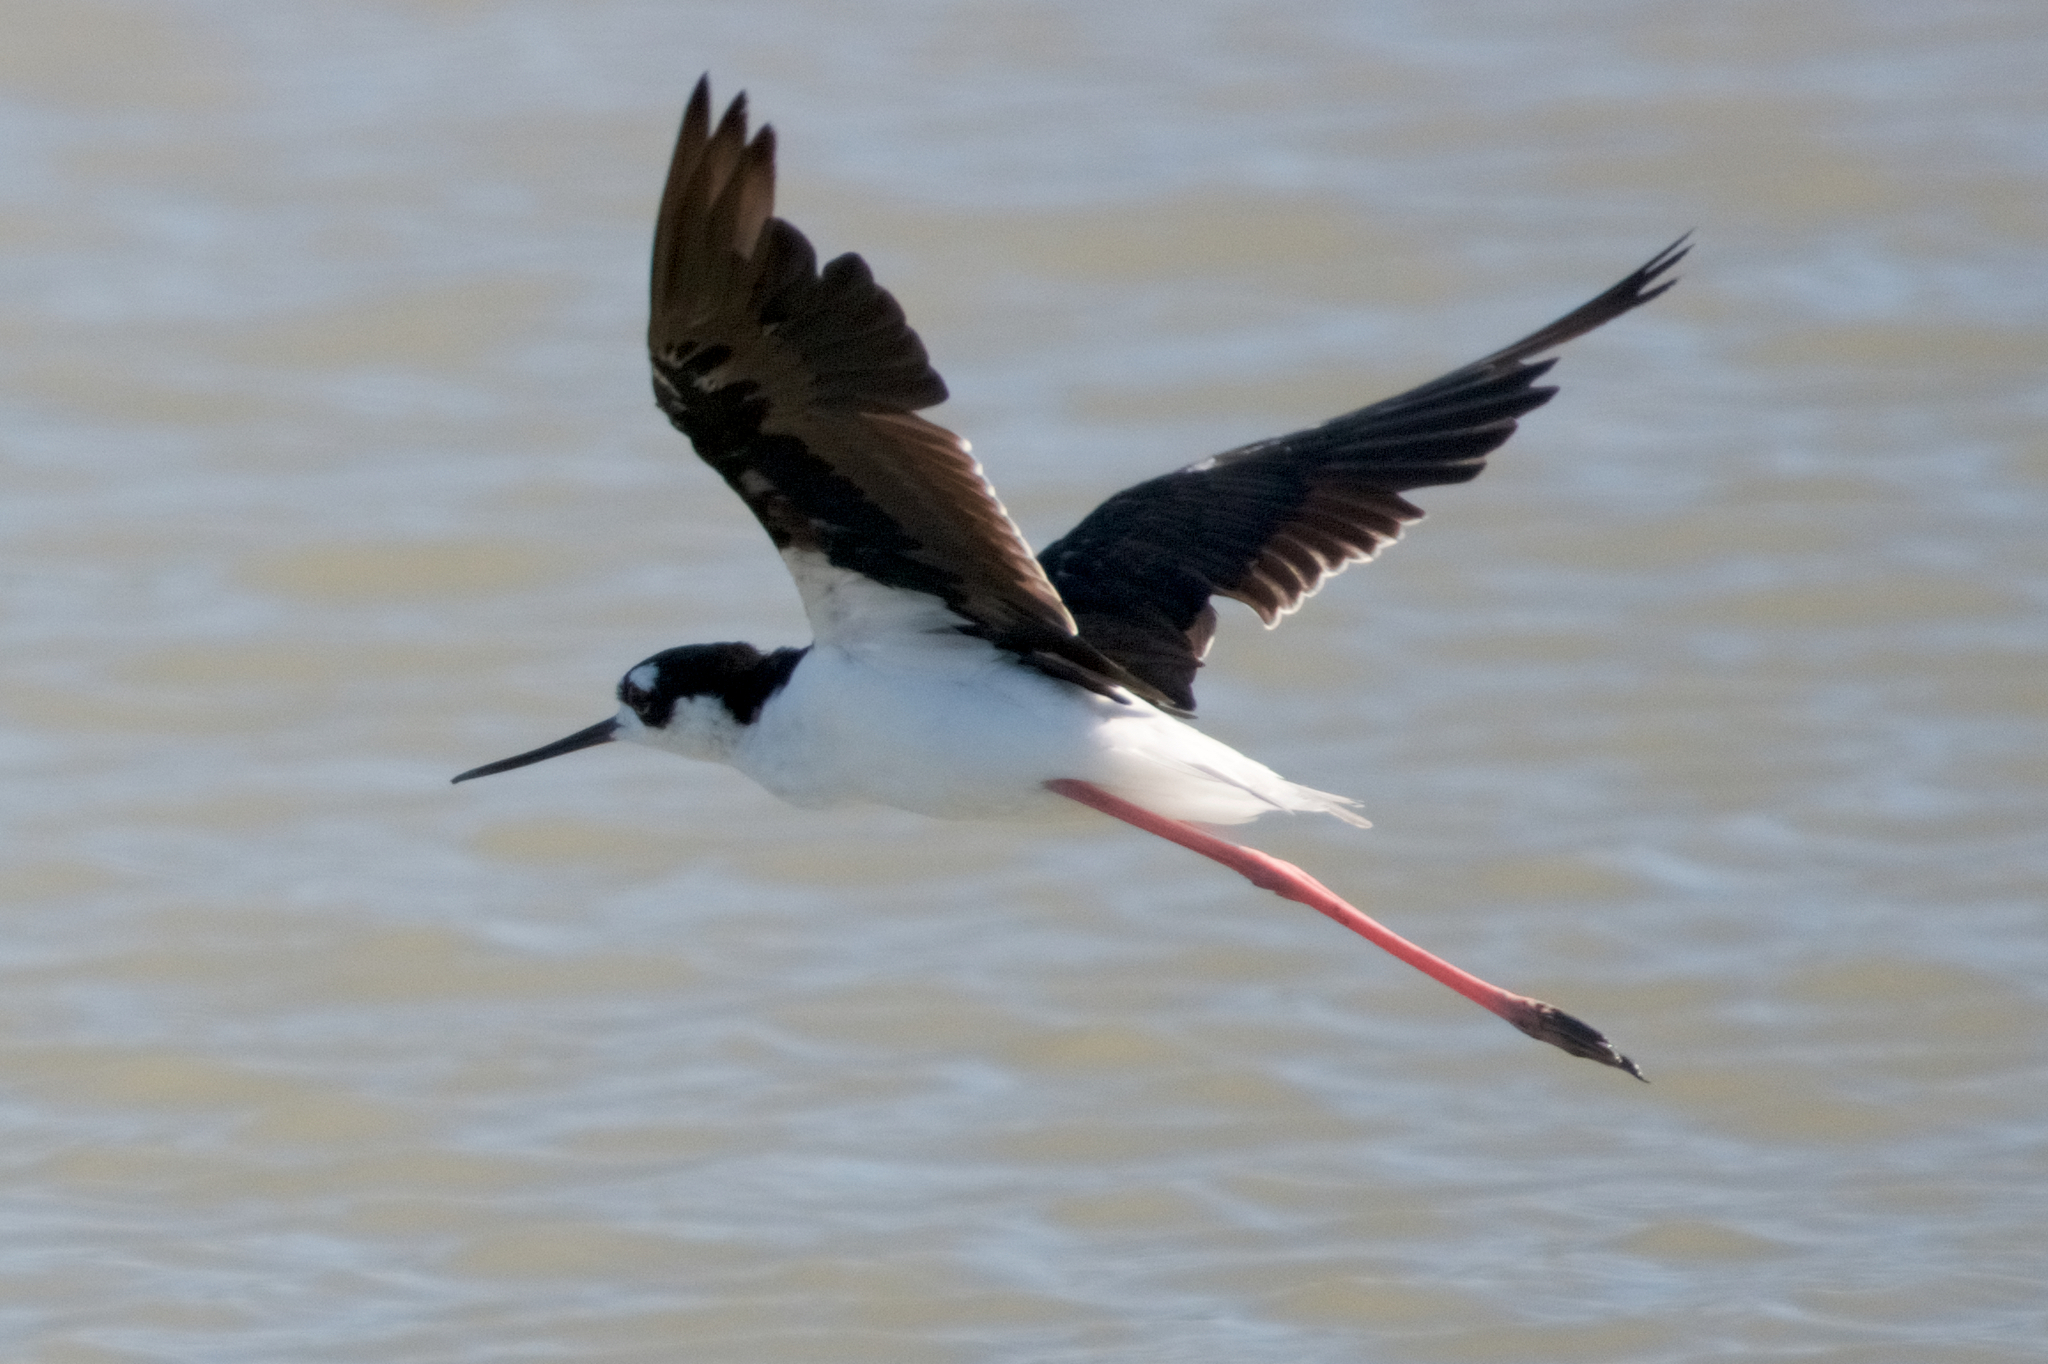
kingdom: Animalia
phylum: Chordata
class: Aves
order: Charadriiformes
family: Recurvirostridae
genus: Himantopus
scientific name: Himantopus mexicanus
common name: Black-necked stilt
